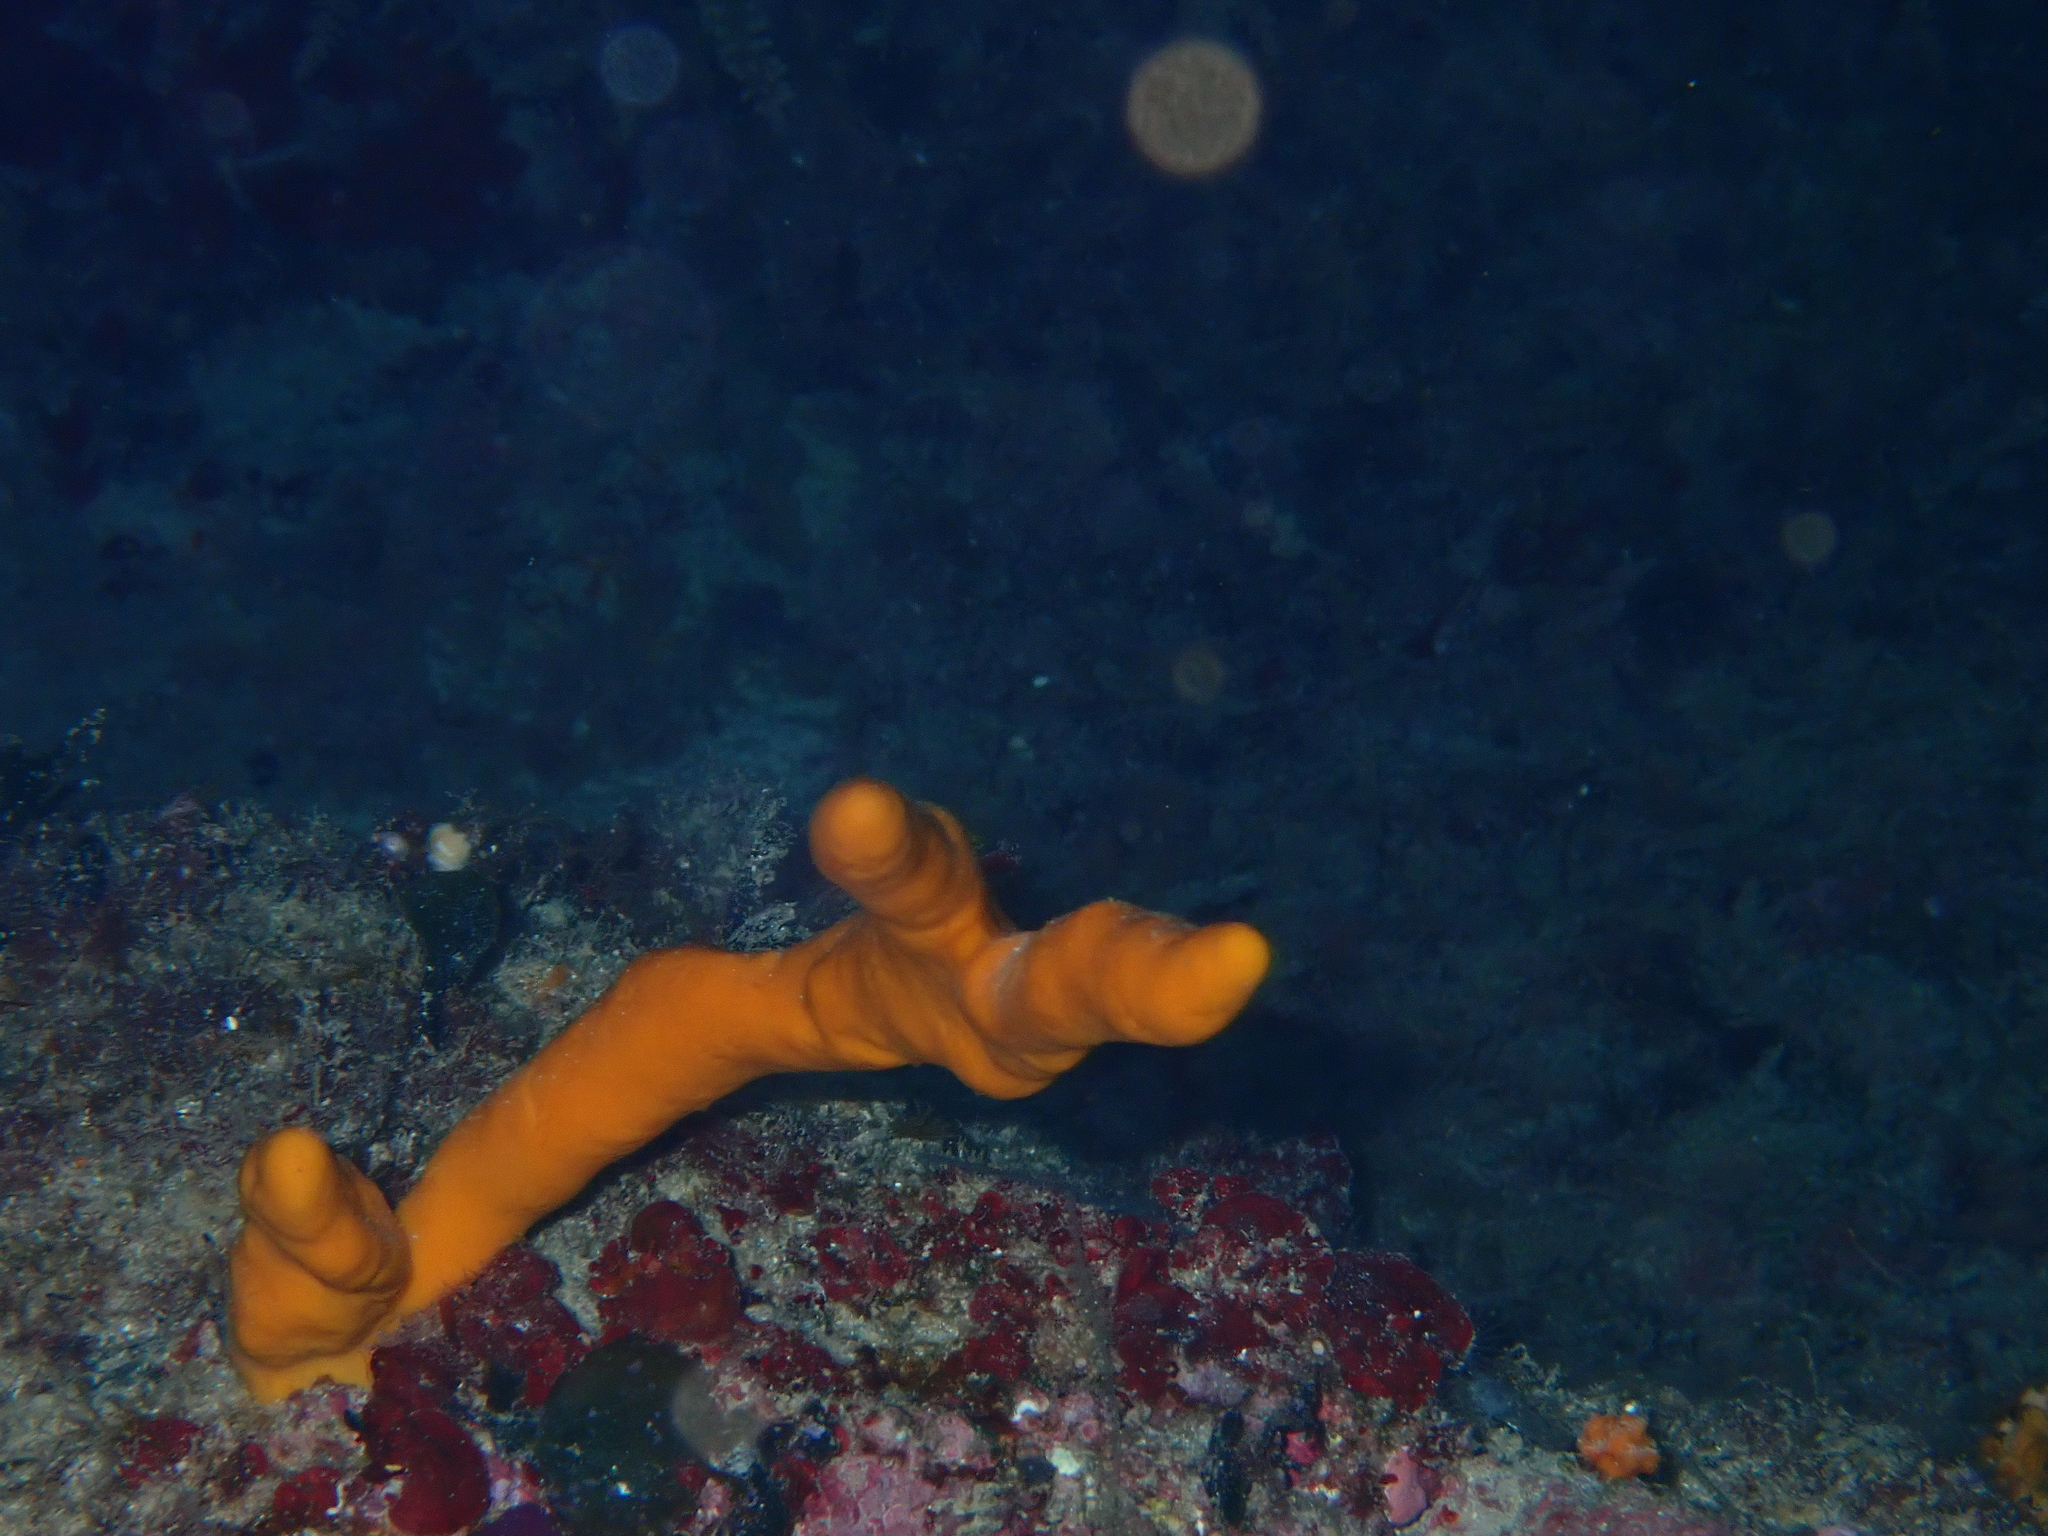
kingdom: Animalia
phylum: Porifera
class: Demospongiae
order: Axinellida
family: Axinellidae
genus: Axinella
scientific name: Axinella polypoides
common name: Common antlers sponge
